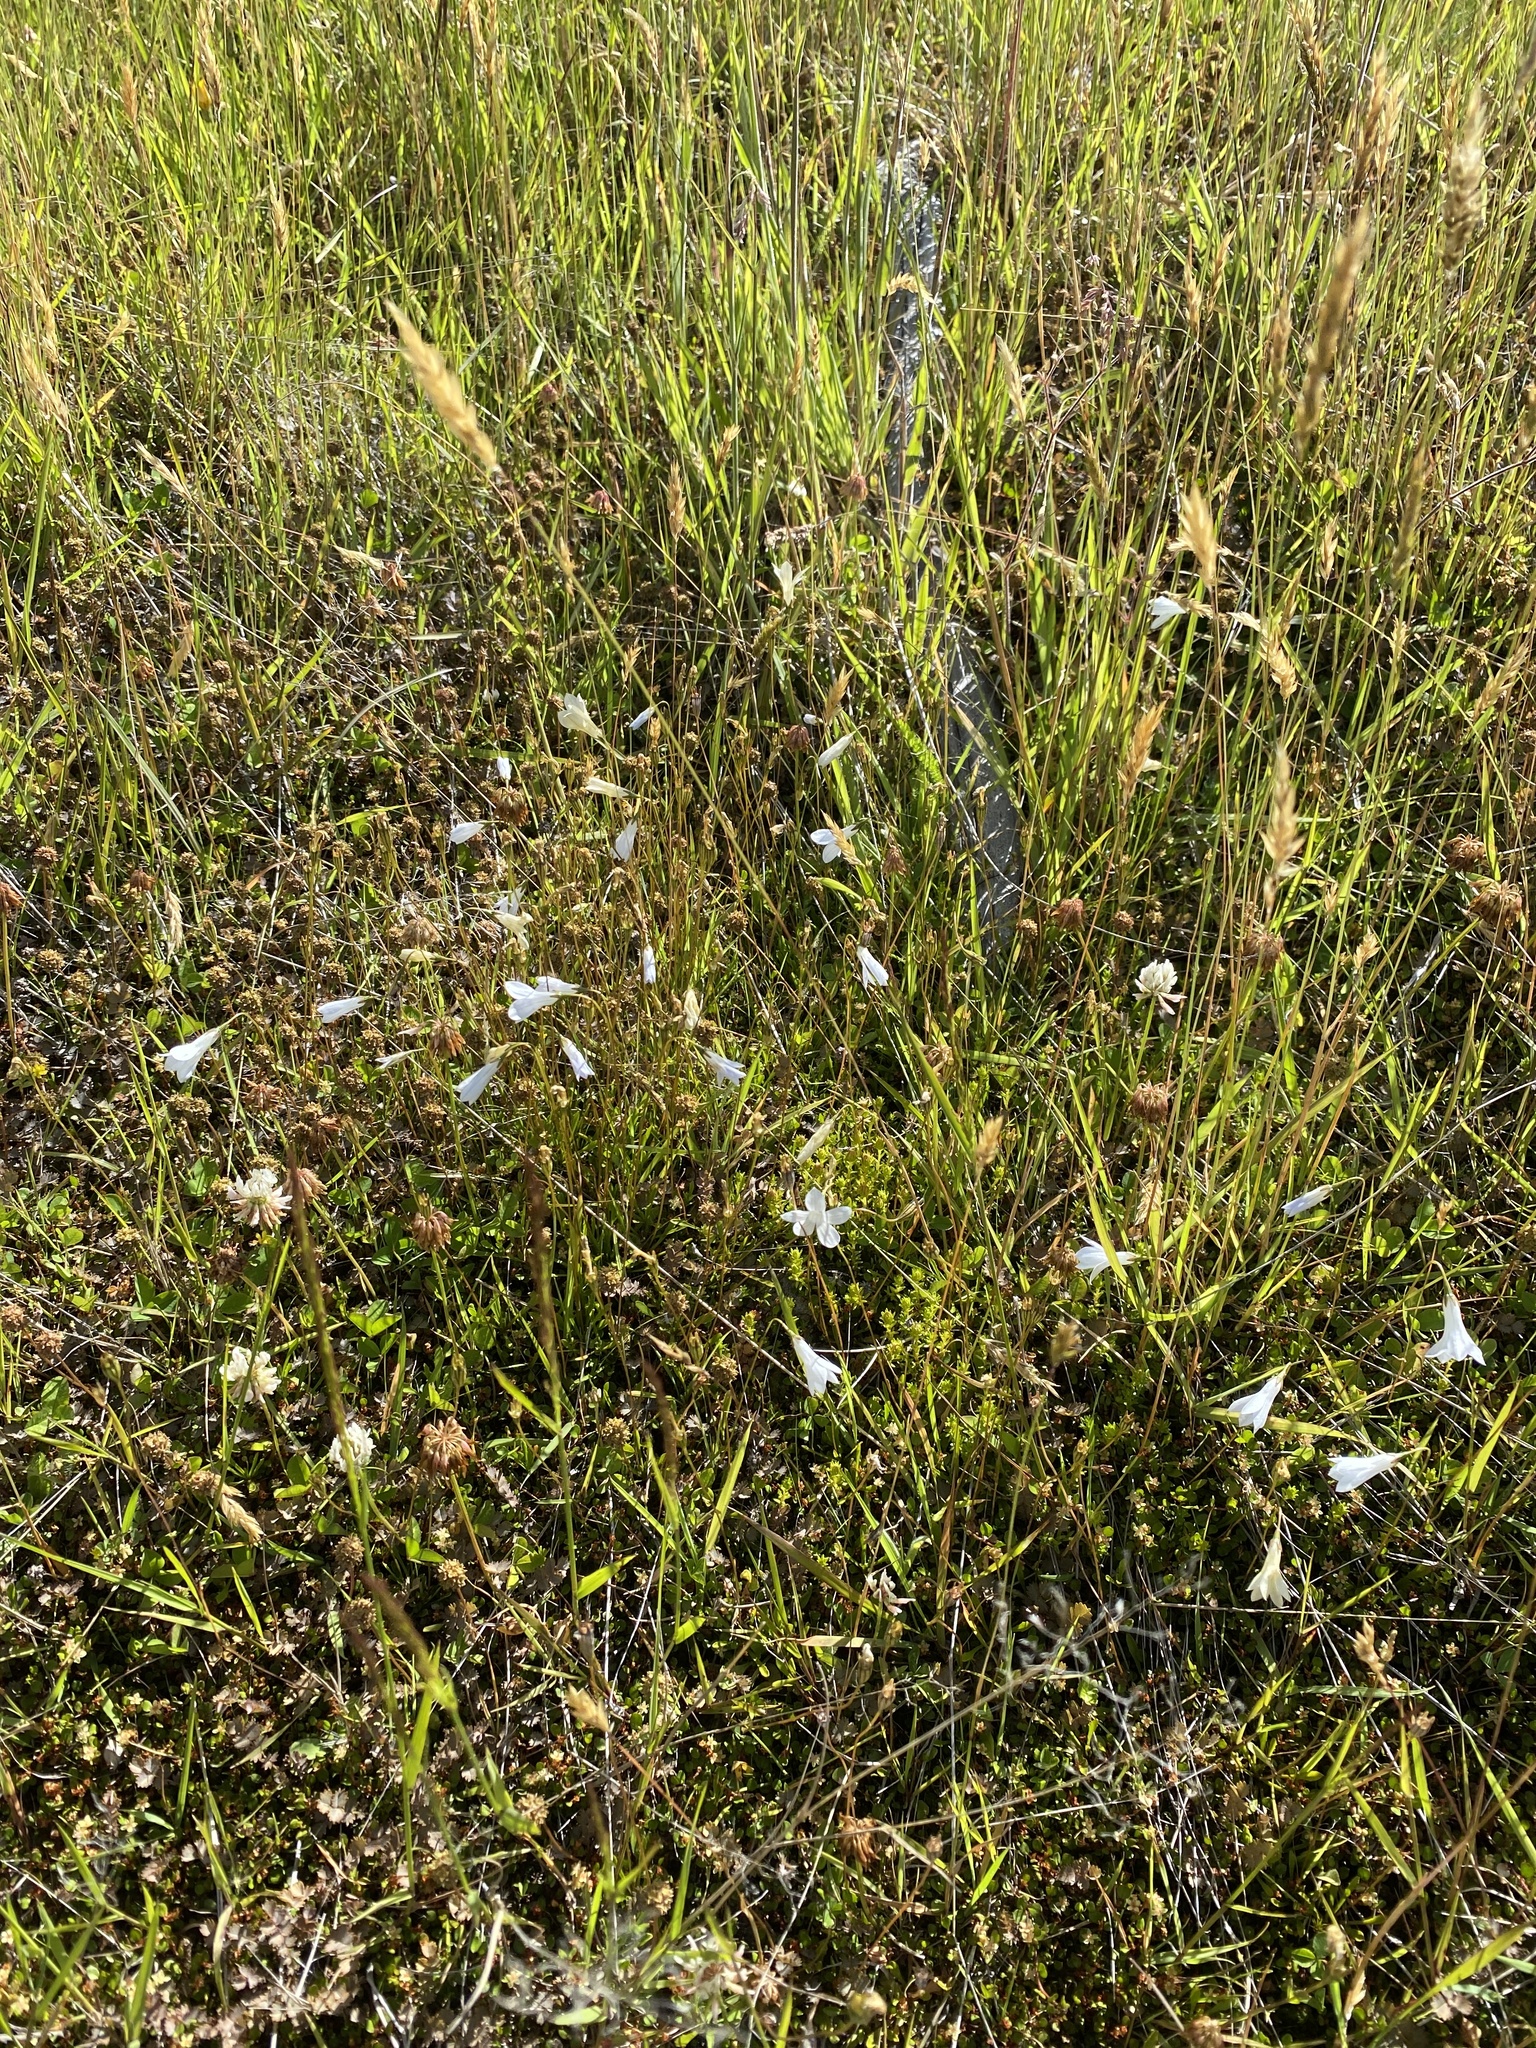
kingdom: Plantae
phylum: Tracheophyta
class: Magnoliopsida
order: Asterales
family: Campanulaceae
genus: Wahlenbergia
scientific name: Wahlenbergia albomarginata
